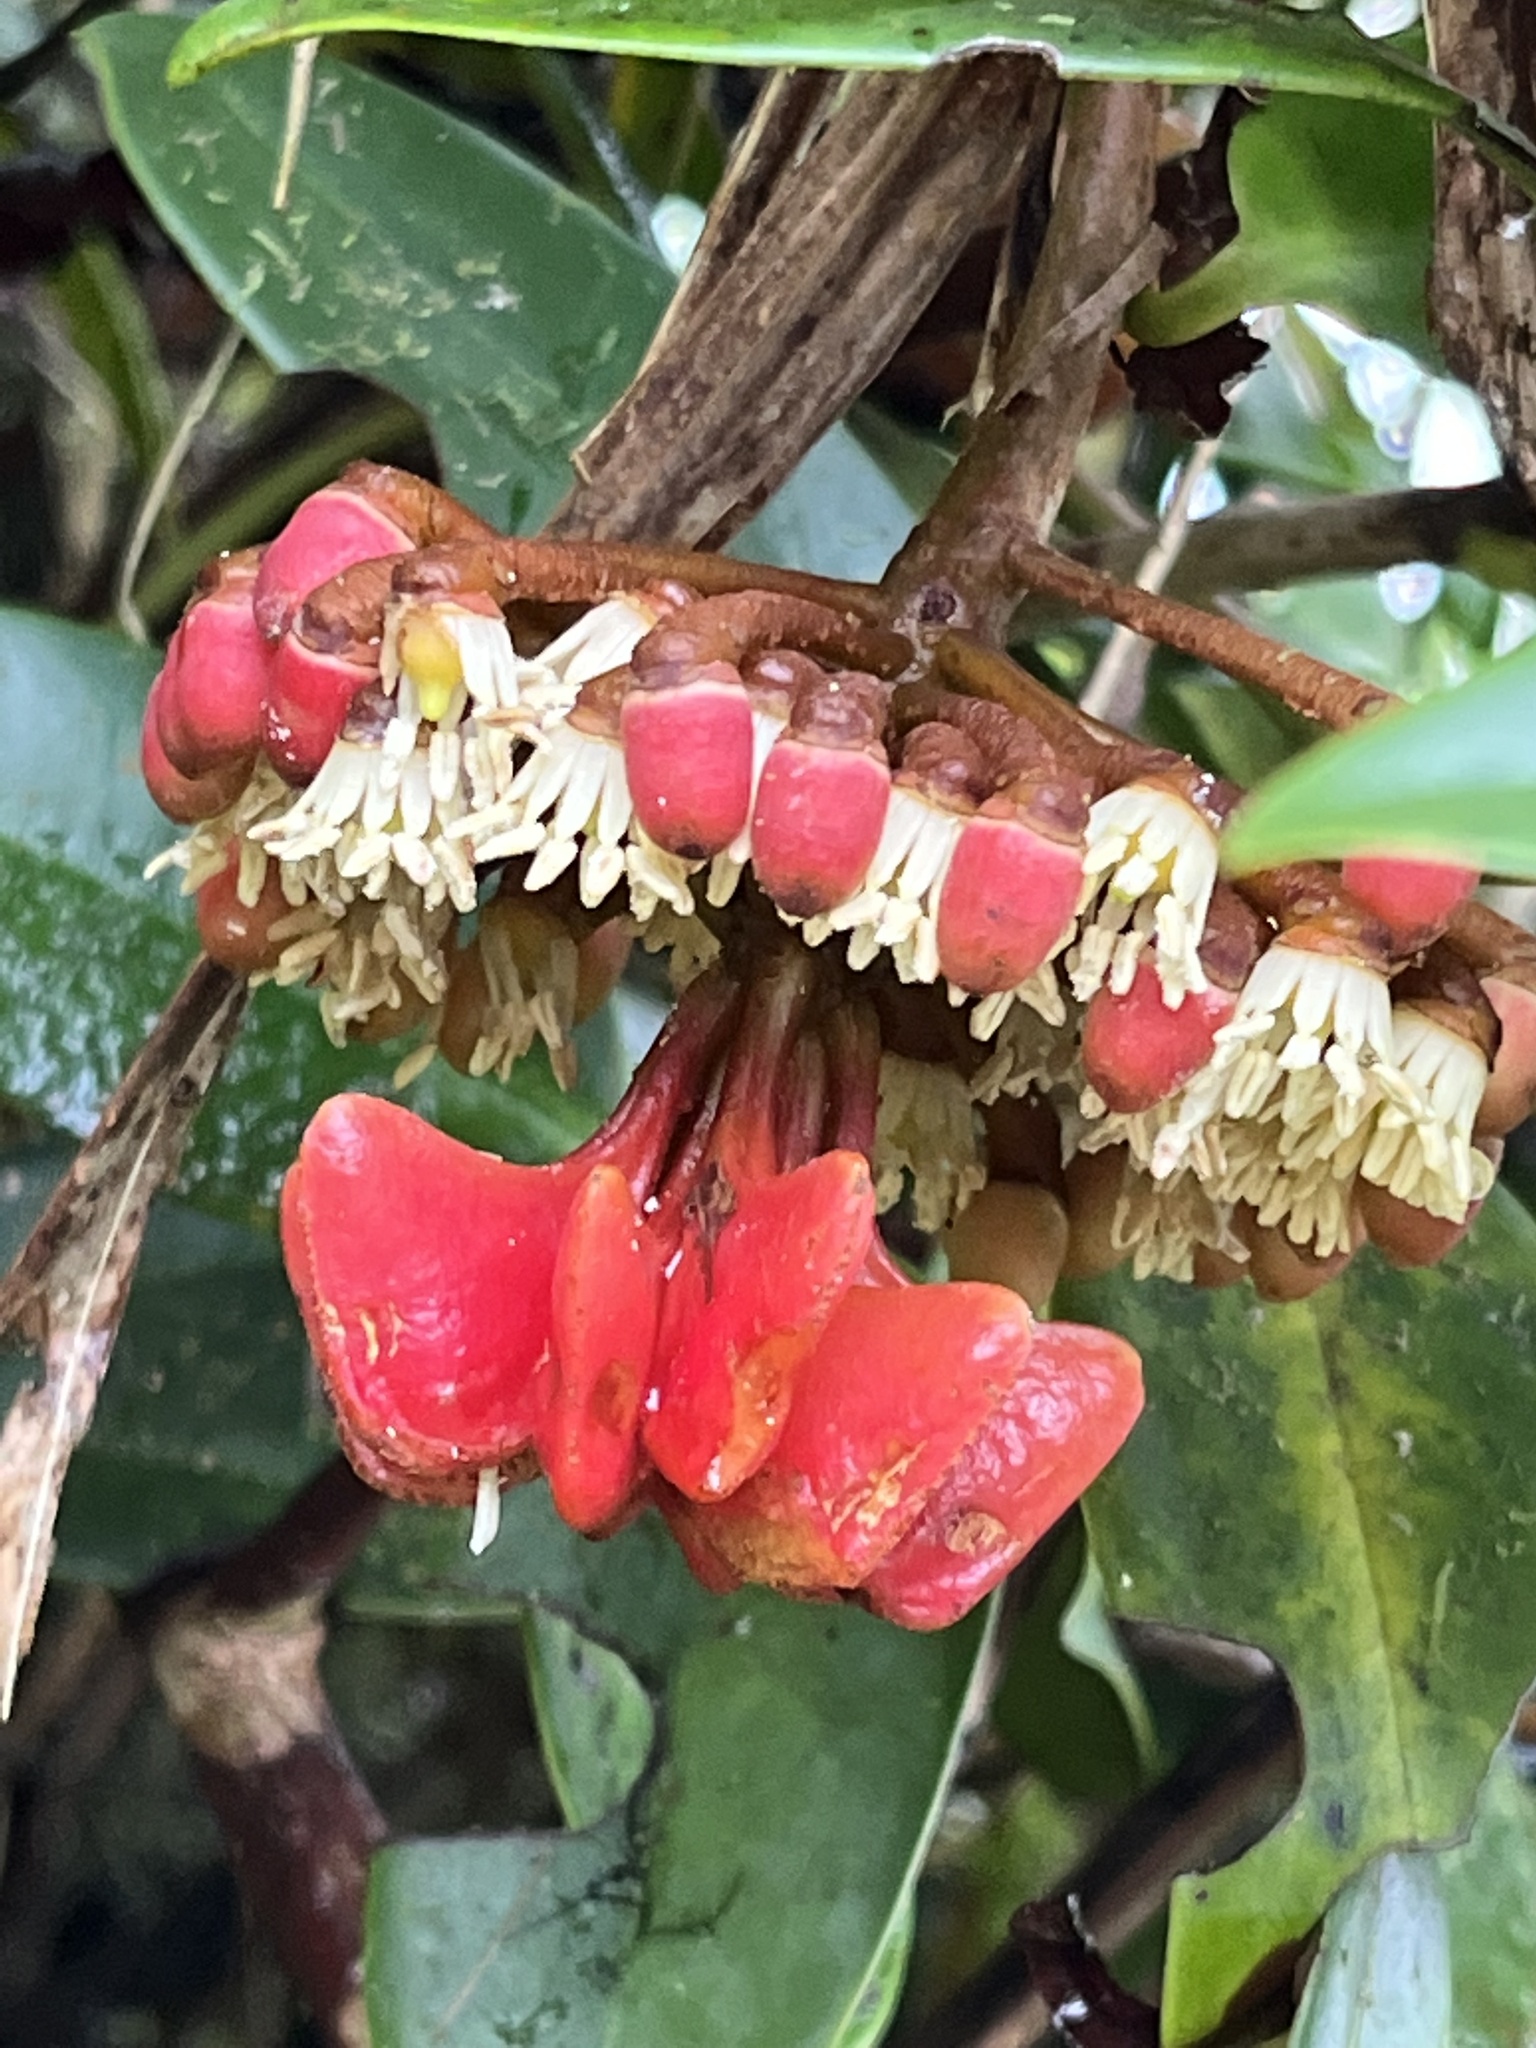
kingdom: Plantae
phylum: Tracheophyta
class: Magnoliopsida
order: Ericales
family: Marcgraviaceae
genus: Marcgravia
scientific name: Marcgravia sintenisii
